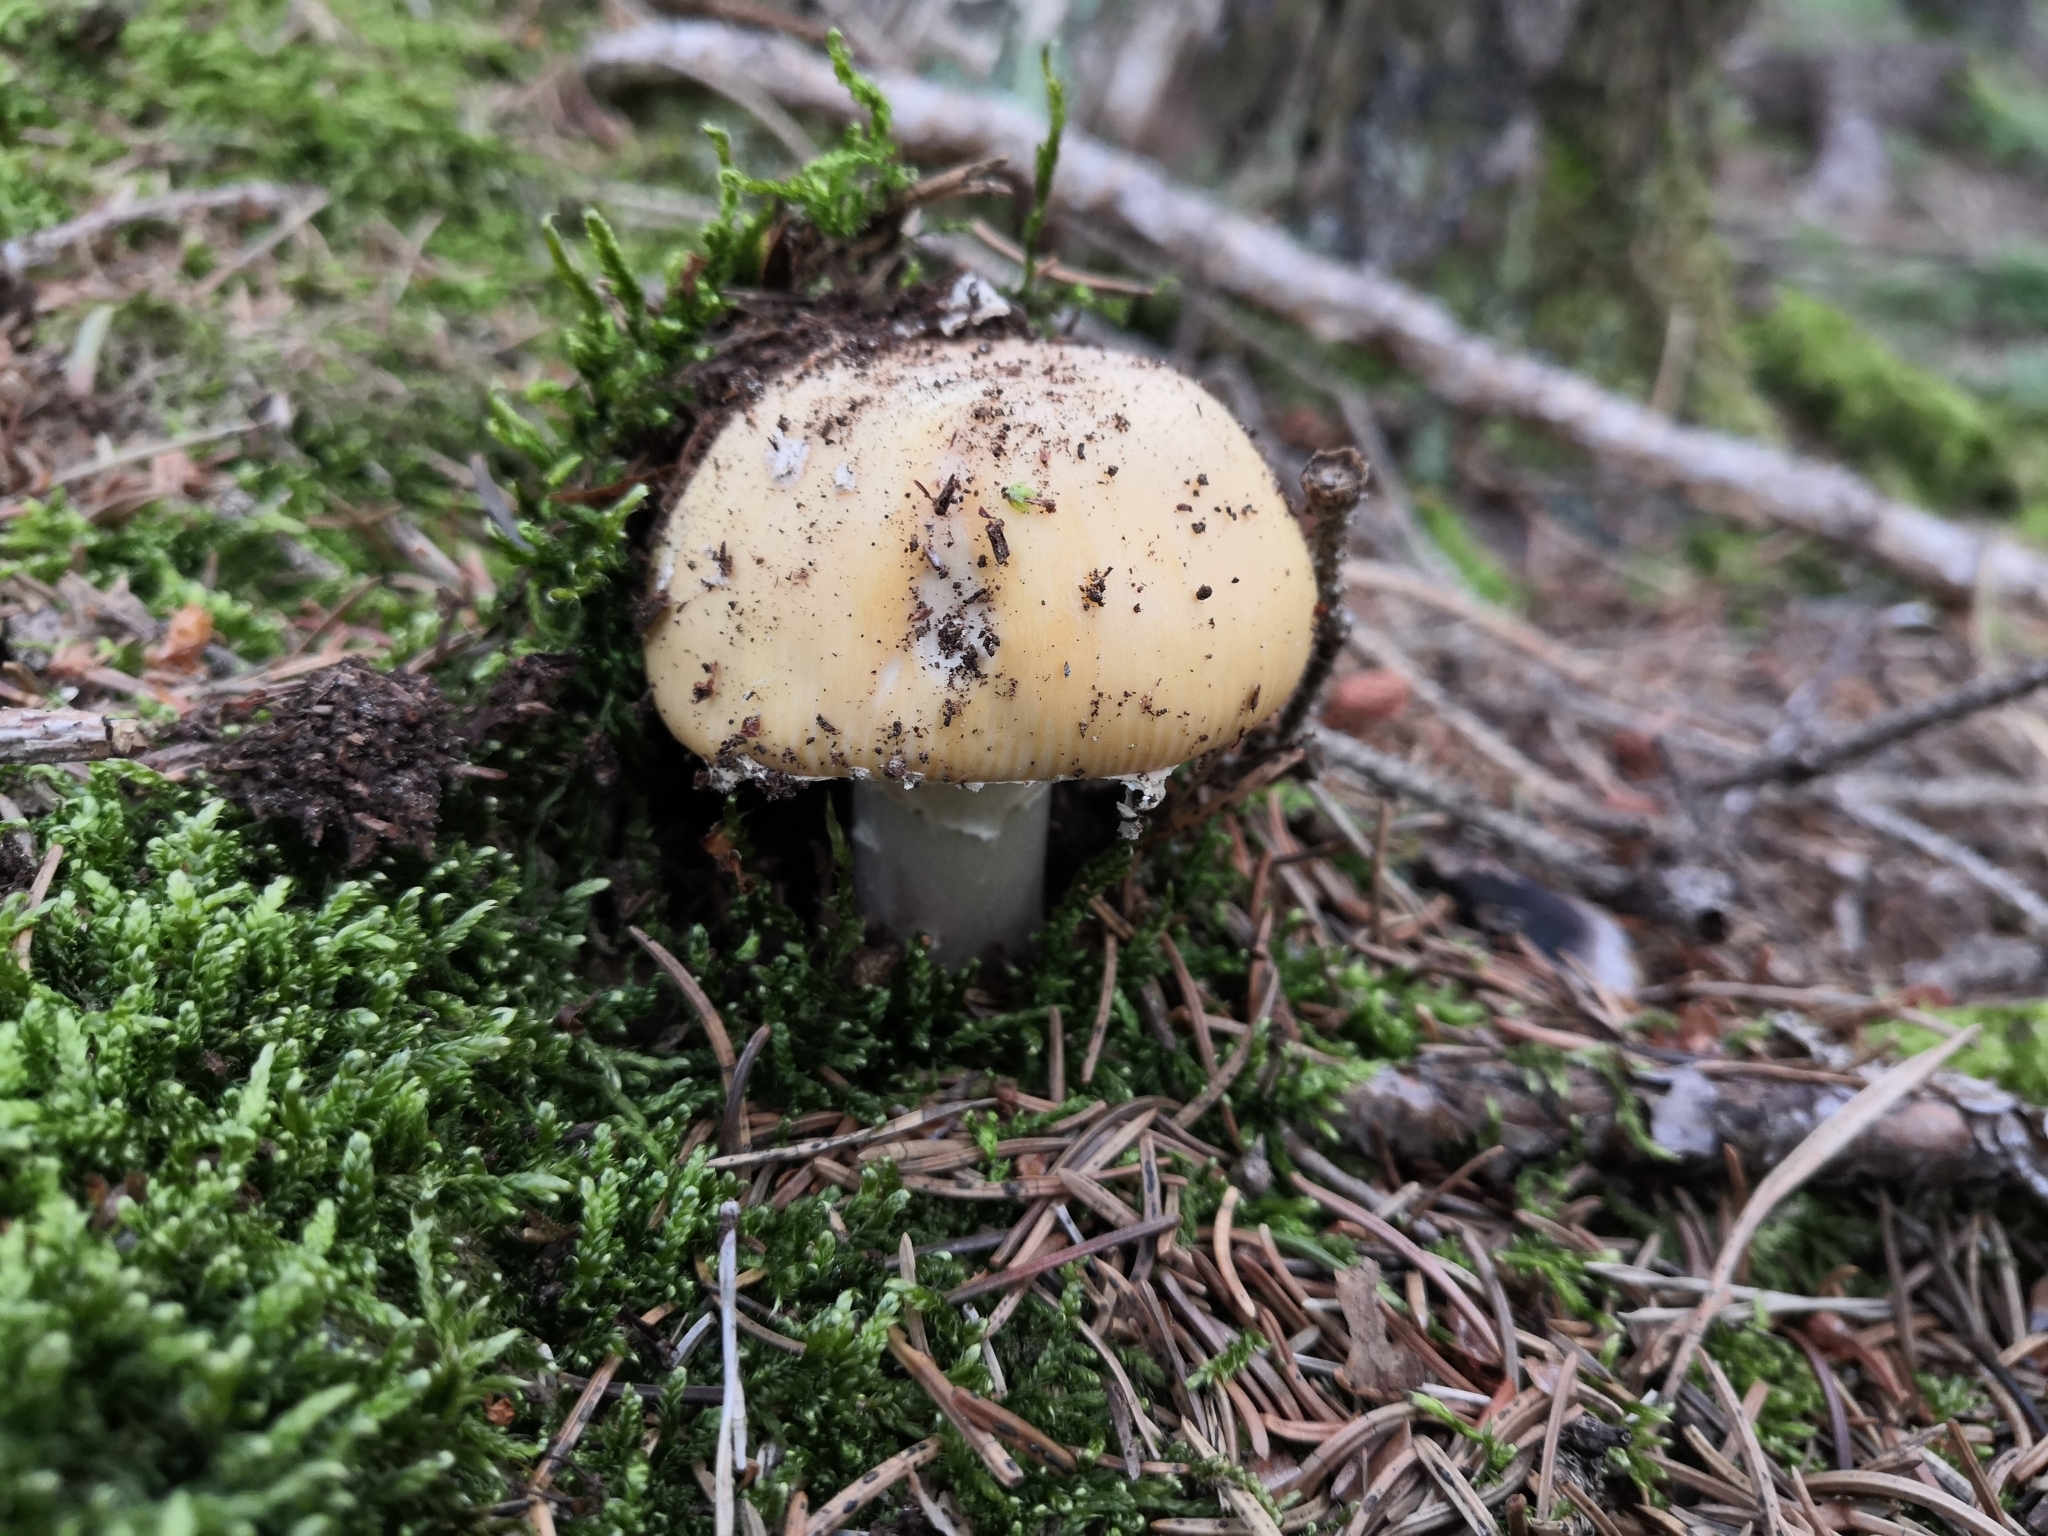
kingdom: Fungi
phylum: Basidiomycota
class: Agaricomycetes
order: Agaricales
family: Amanitaceae
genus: Amanita
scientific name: Amanita gemmata
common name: Jewelled amanita
